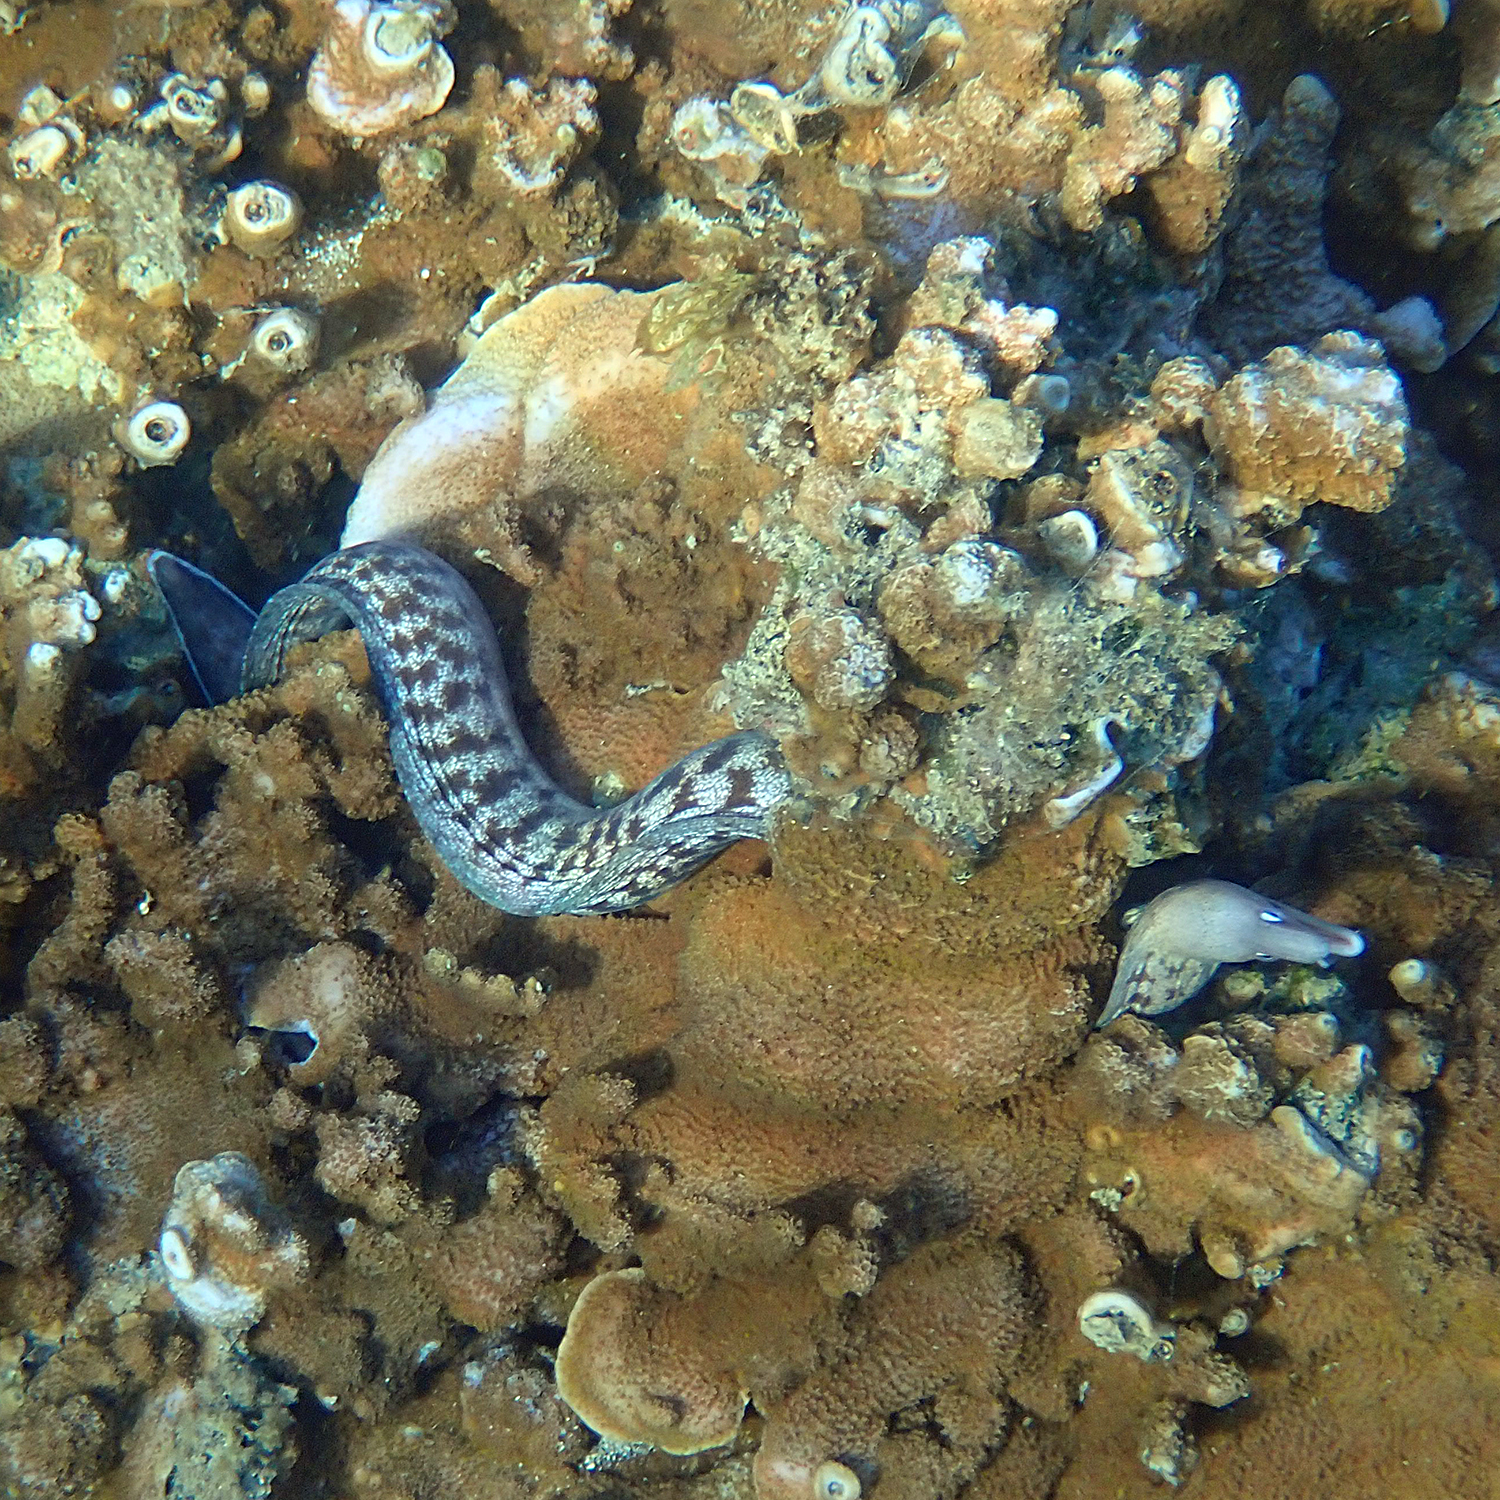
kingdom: Animalia
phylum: Chordata
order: Anguilliformes
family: Muraenidae
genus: Gymnothorax
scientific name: Gymnothorax nubilus
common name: Grey moray
